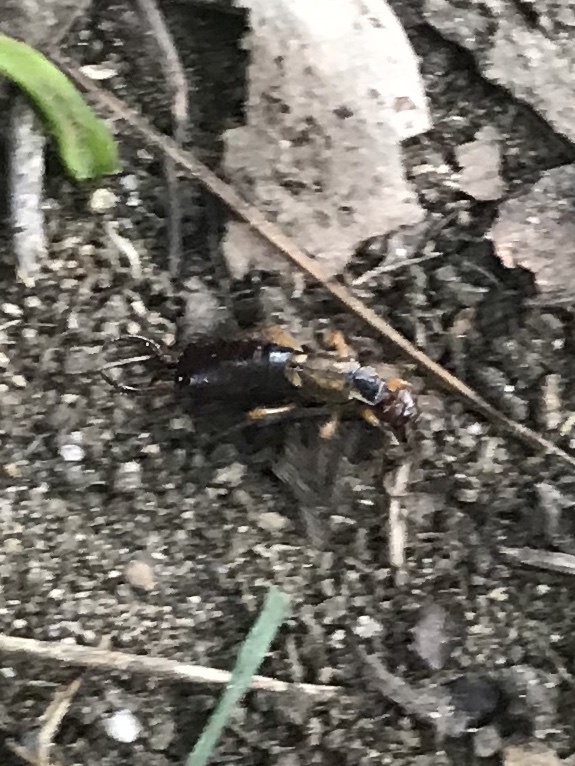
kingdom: Animalia
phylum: Arthropoda
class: Insecta
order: Dermaptera
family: Forficulidae
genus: Forficula
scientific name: Forficula
